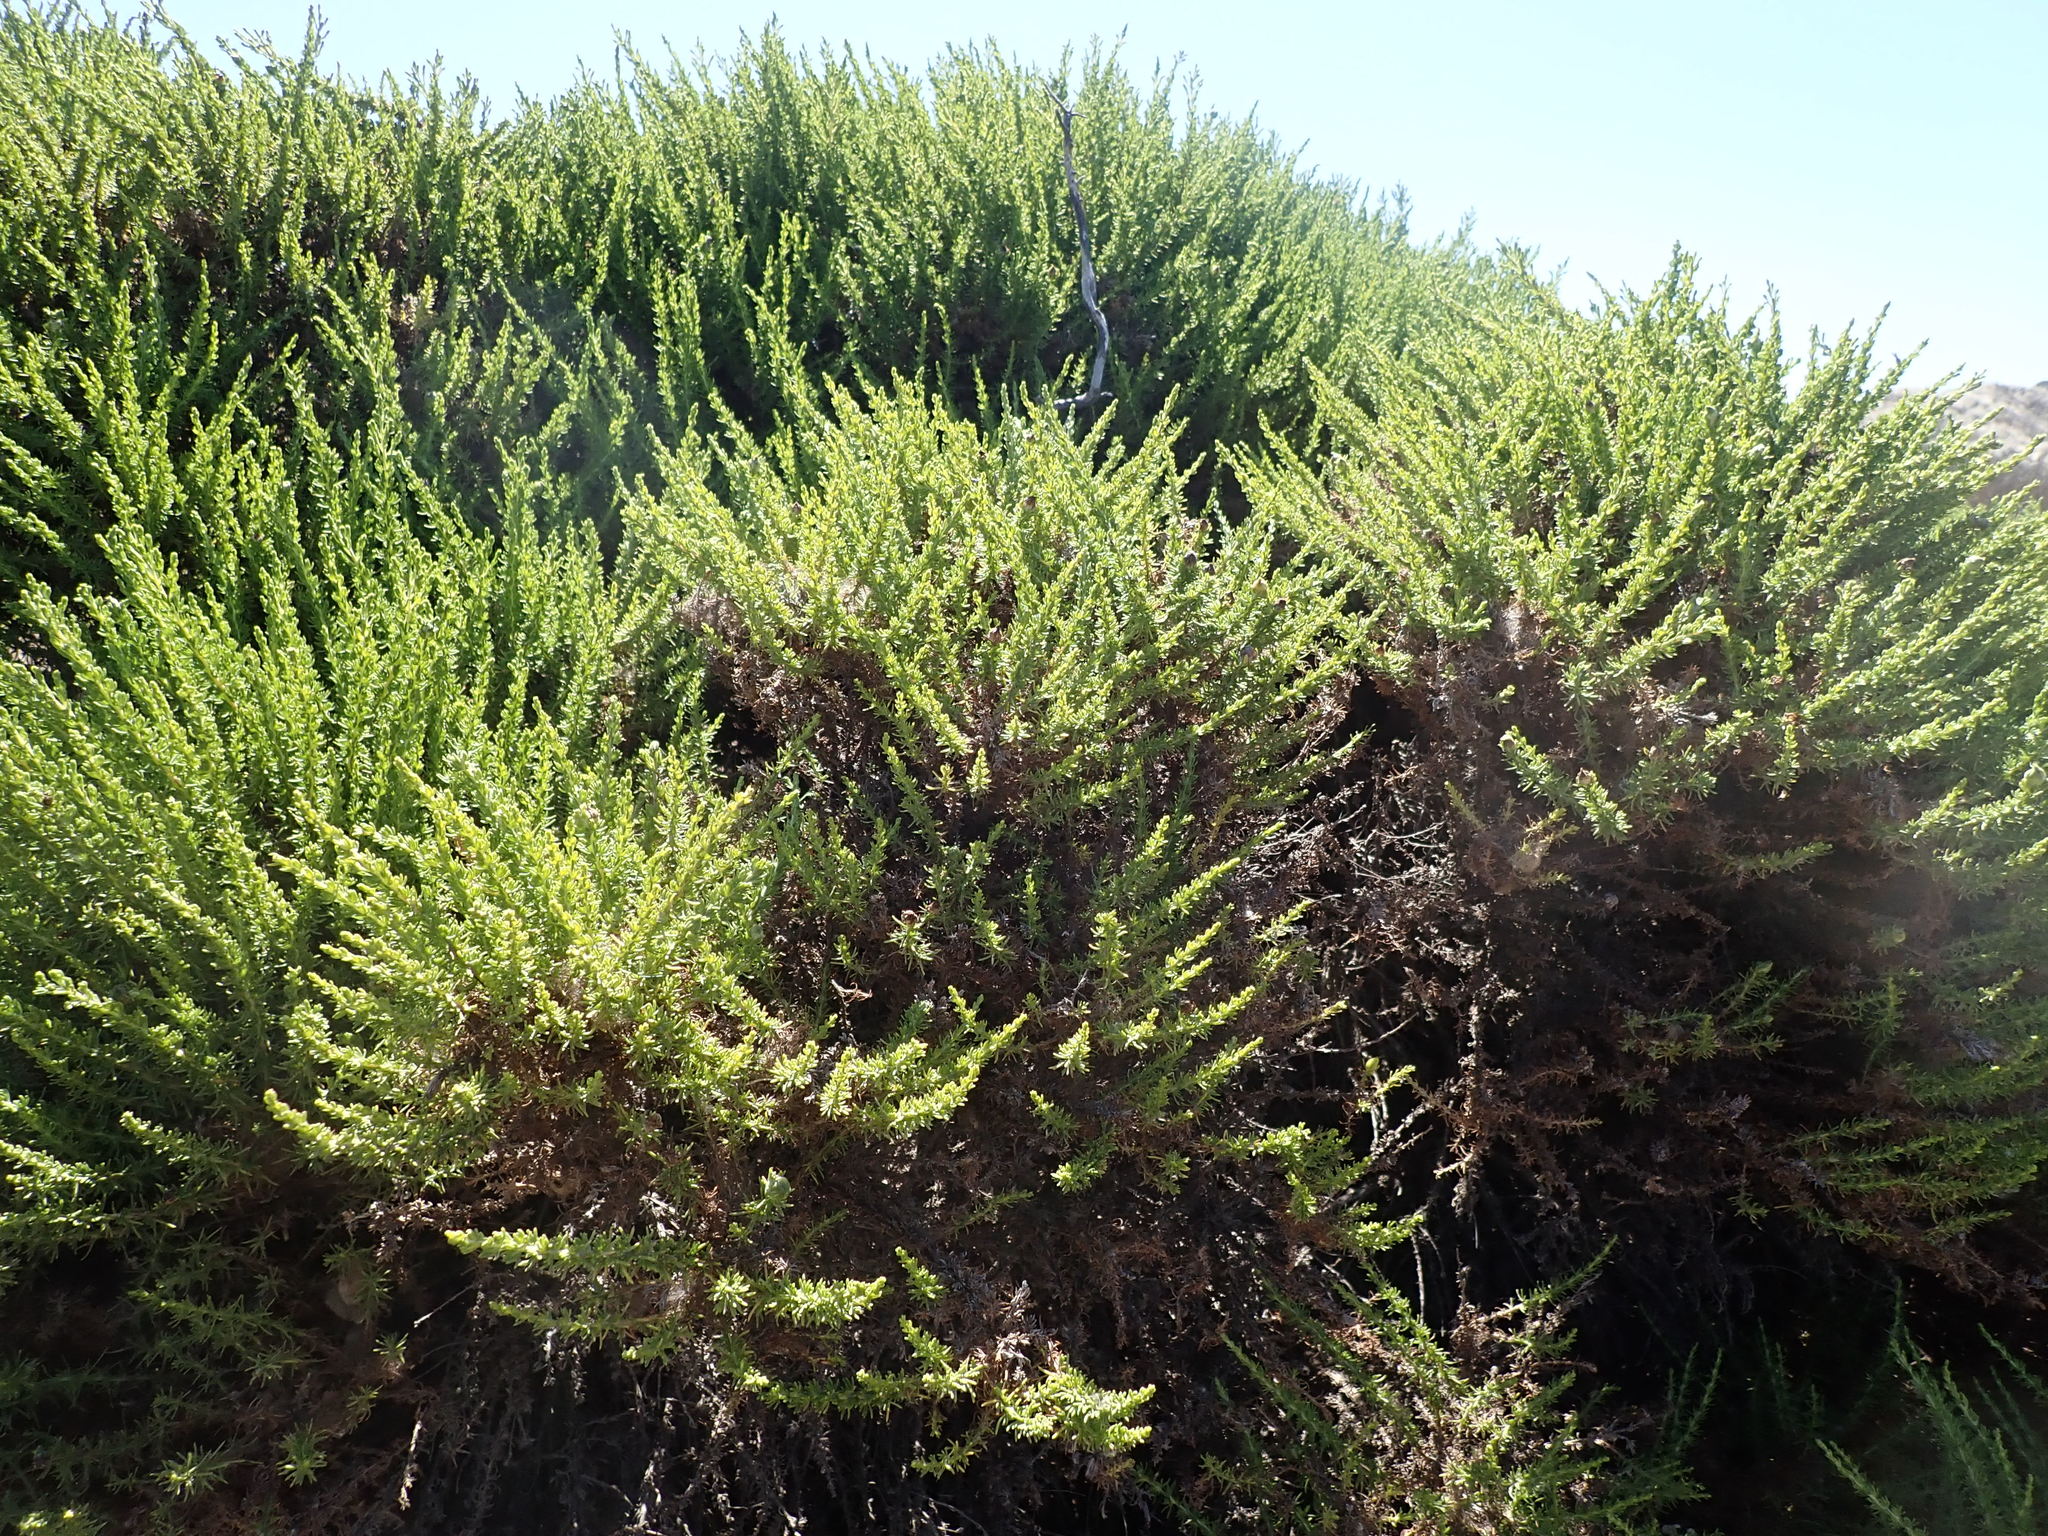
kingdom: Plantae
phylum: Tracheophyta
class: Magnoliopsida
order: Asterales
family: Asteraceae
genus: Ericameria
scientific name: Ericameria ericoides
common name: California goldenbush
